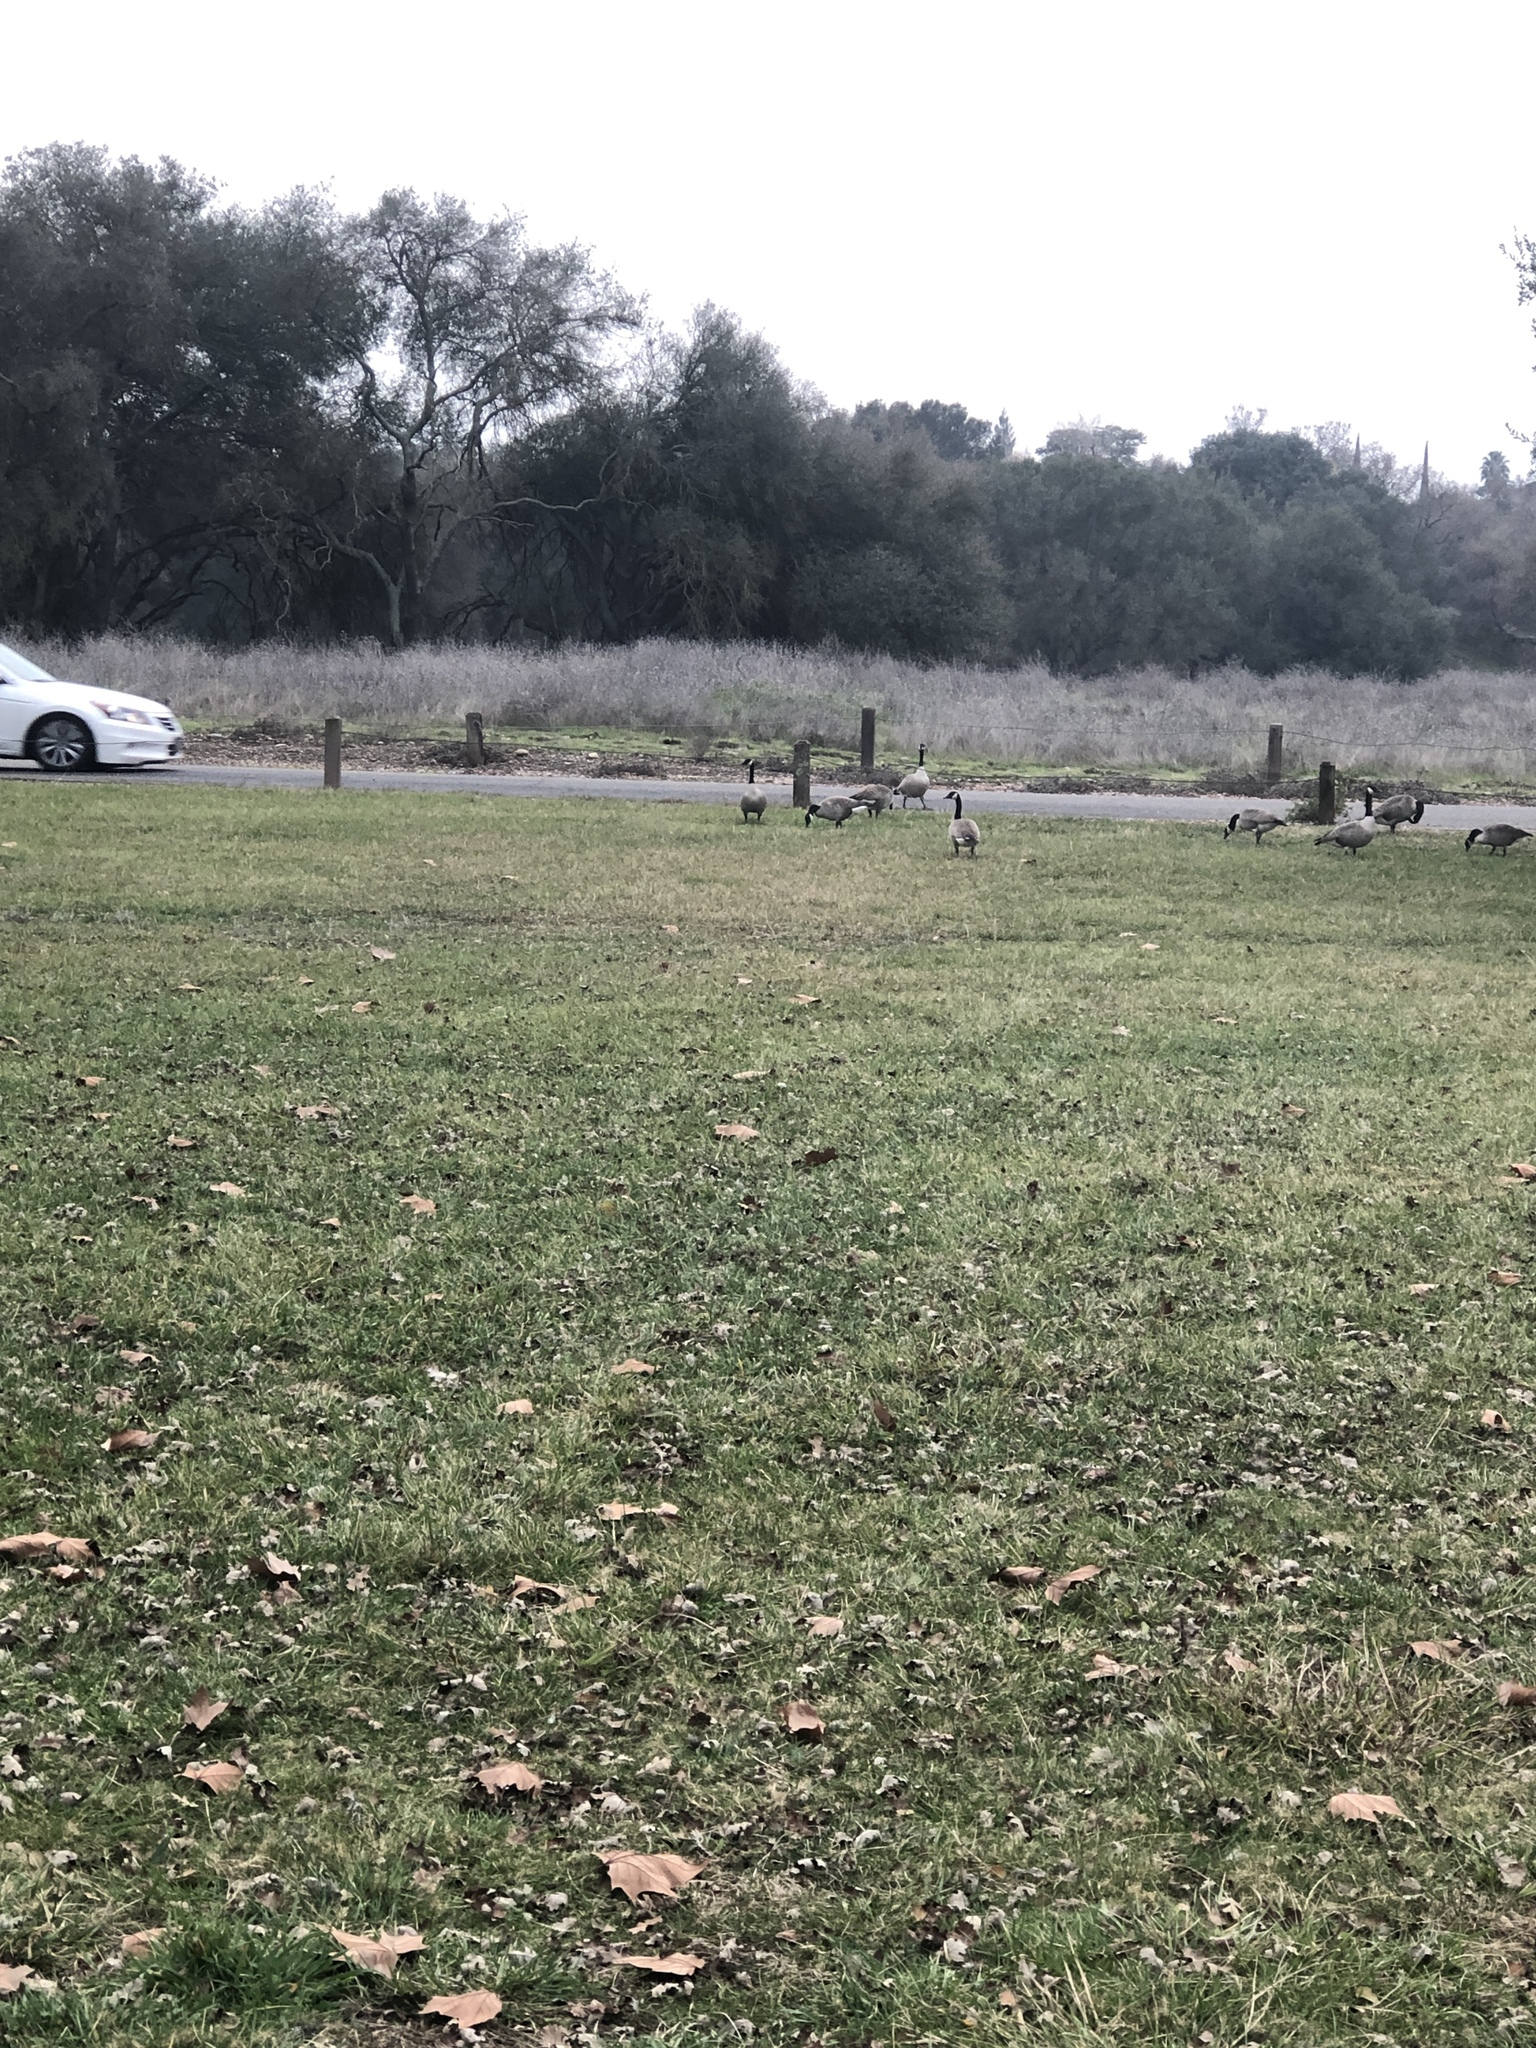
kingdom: Animalia
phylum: Chordata
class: Aves
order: Anseriformes
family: Anatidae
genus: Branta
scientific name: Branta canadensis
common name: Canada goose
